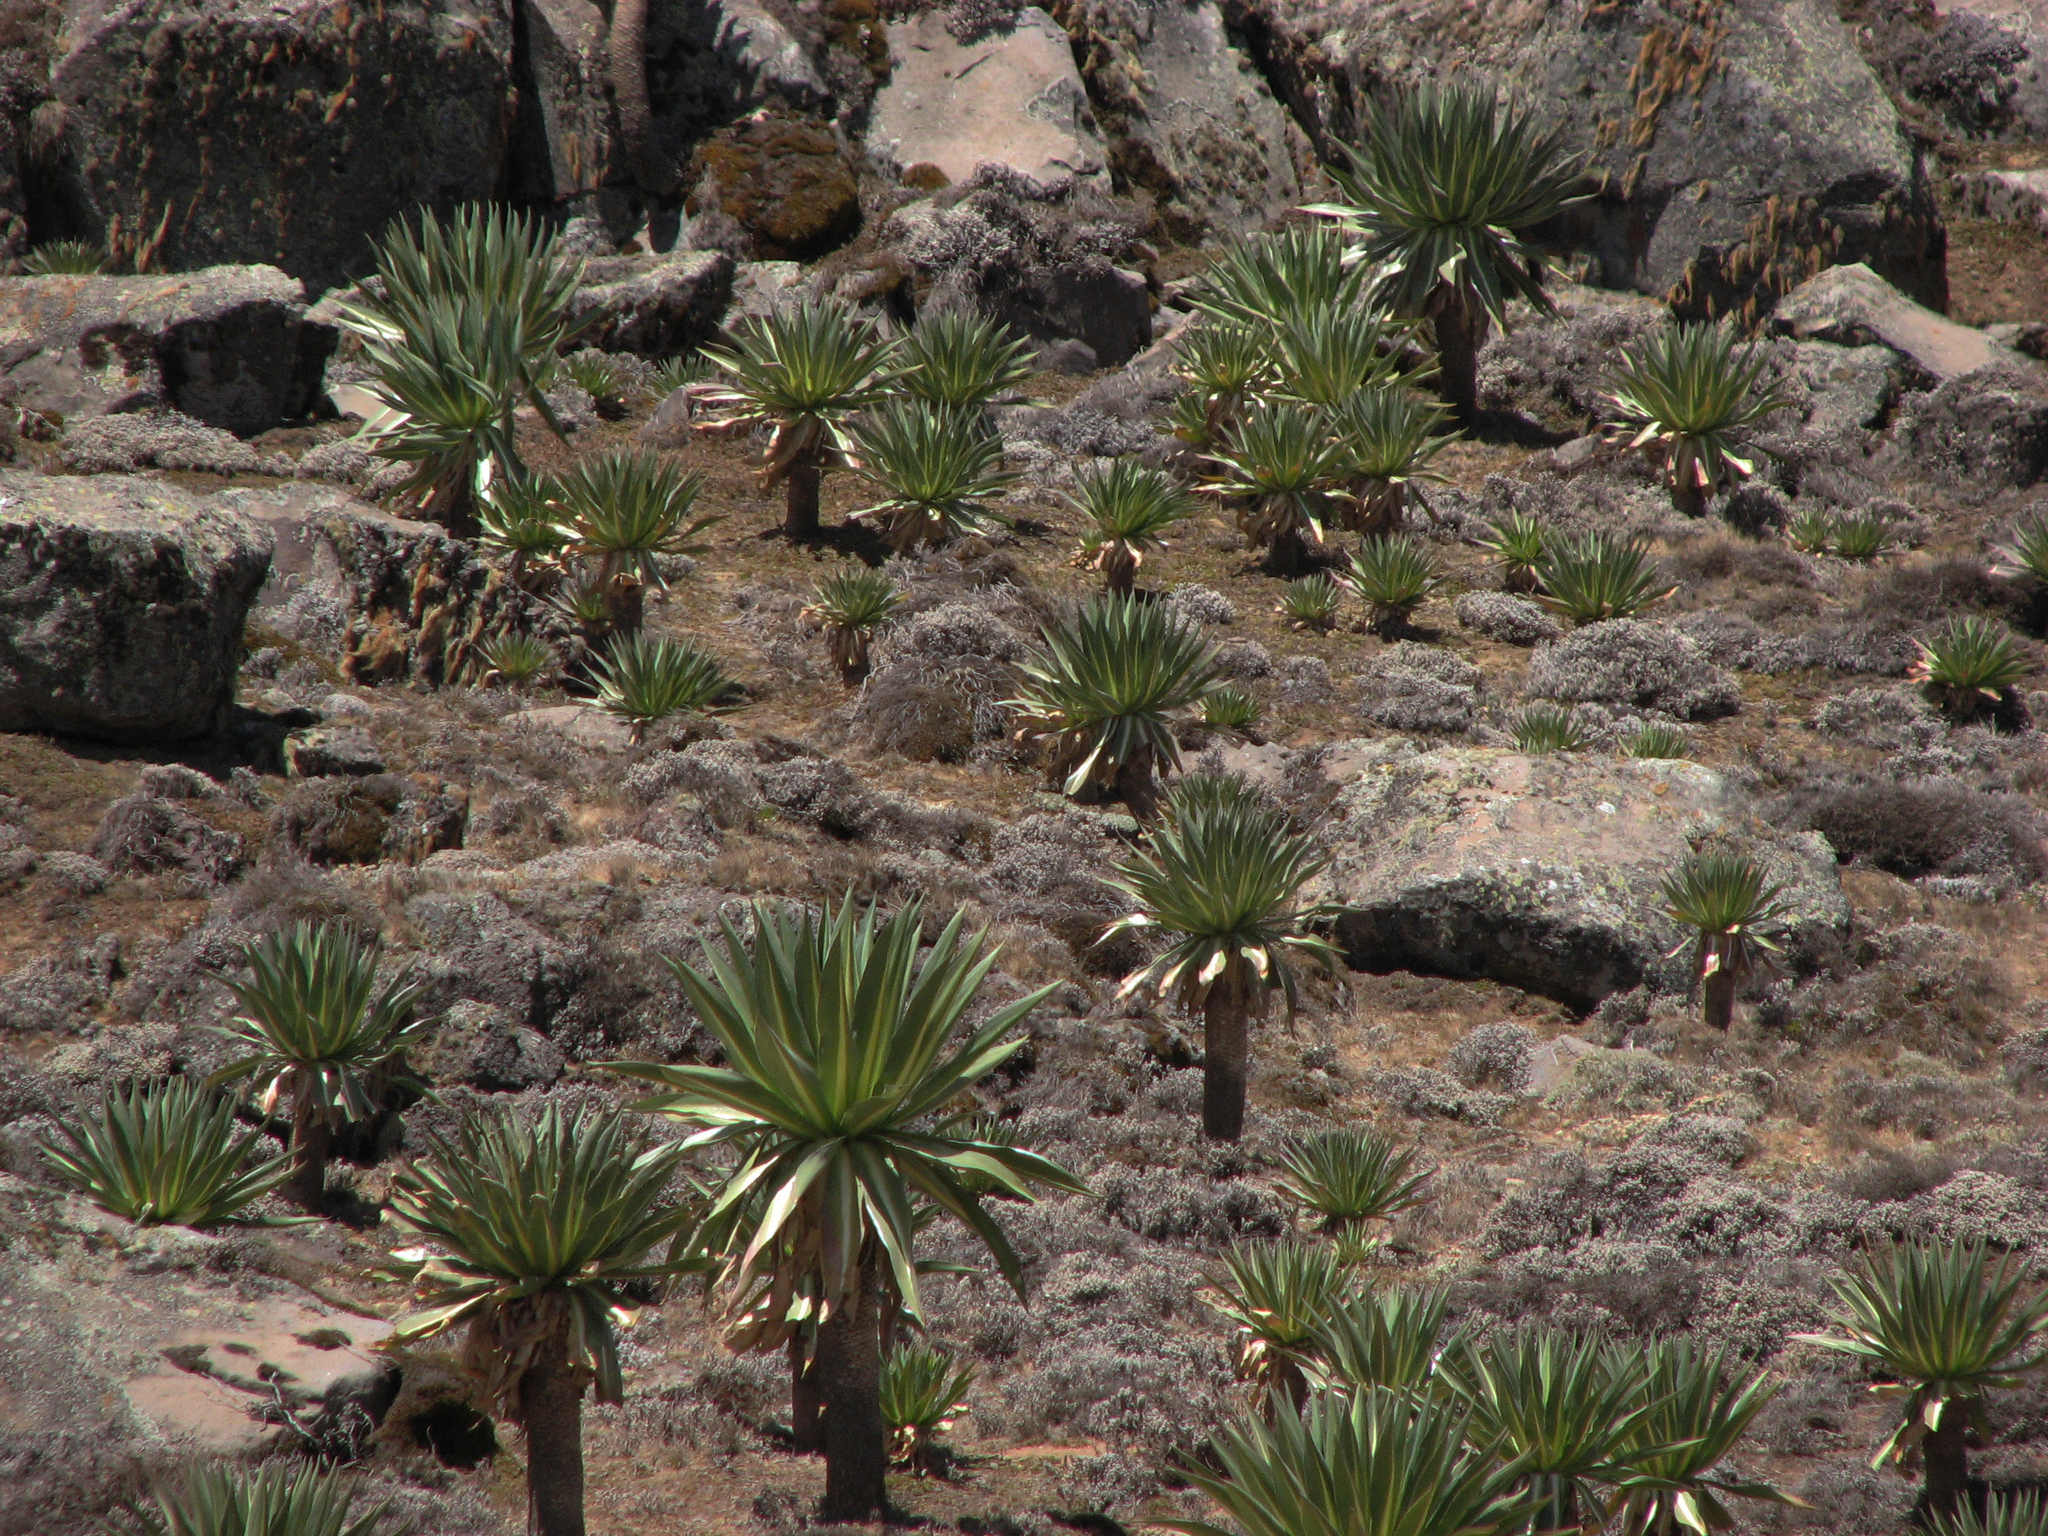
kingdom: Plantae
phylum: Tracheophyta
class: Magnoliopsida
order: Asterales
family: Campanulaceae
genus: Lobelia
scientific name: Lobelia rhynchopetalum
